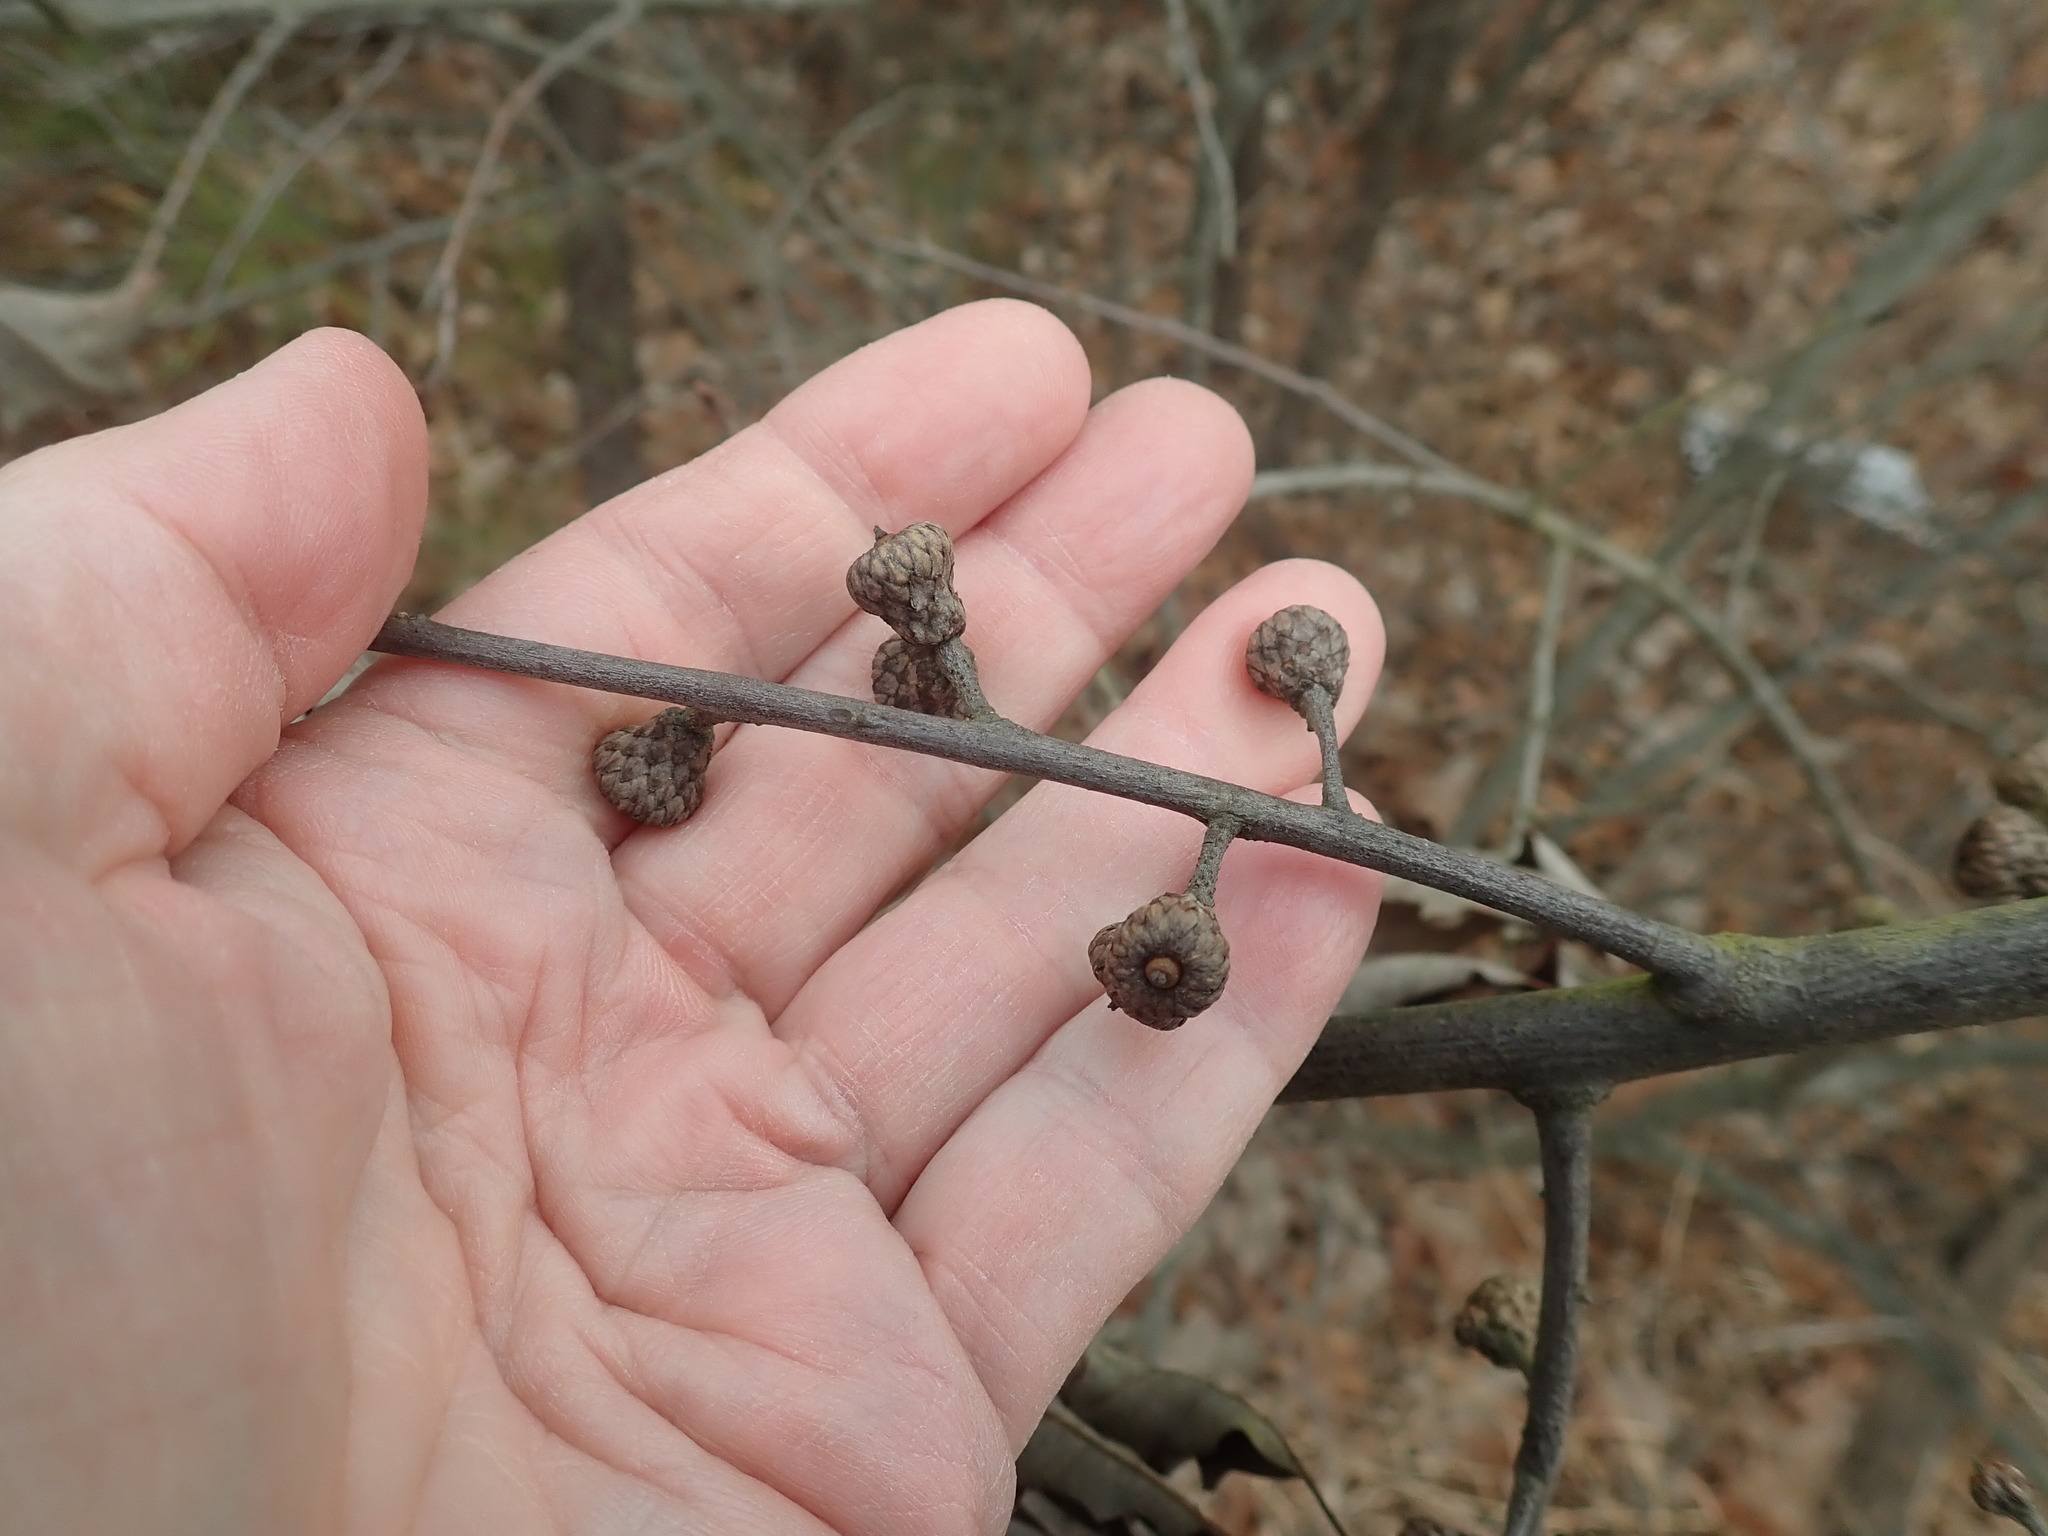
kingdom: Plantae
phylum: Tracheophyta
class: Magnoliopsida
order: Fagales
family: Fagaceae
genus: Quercus
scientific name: Quercus ilicifolia
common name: Bear oak
